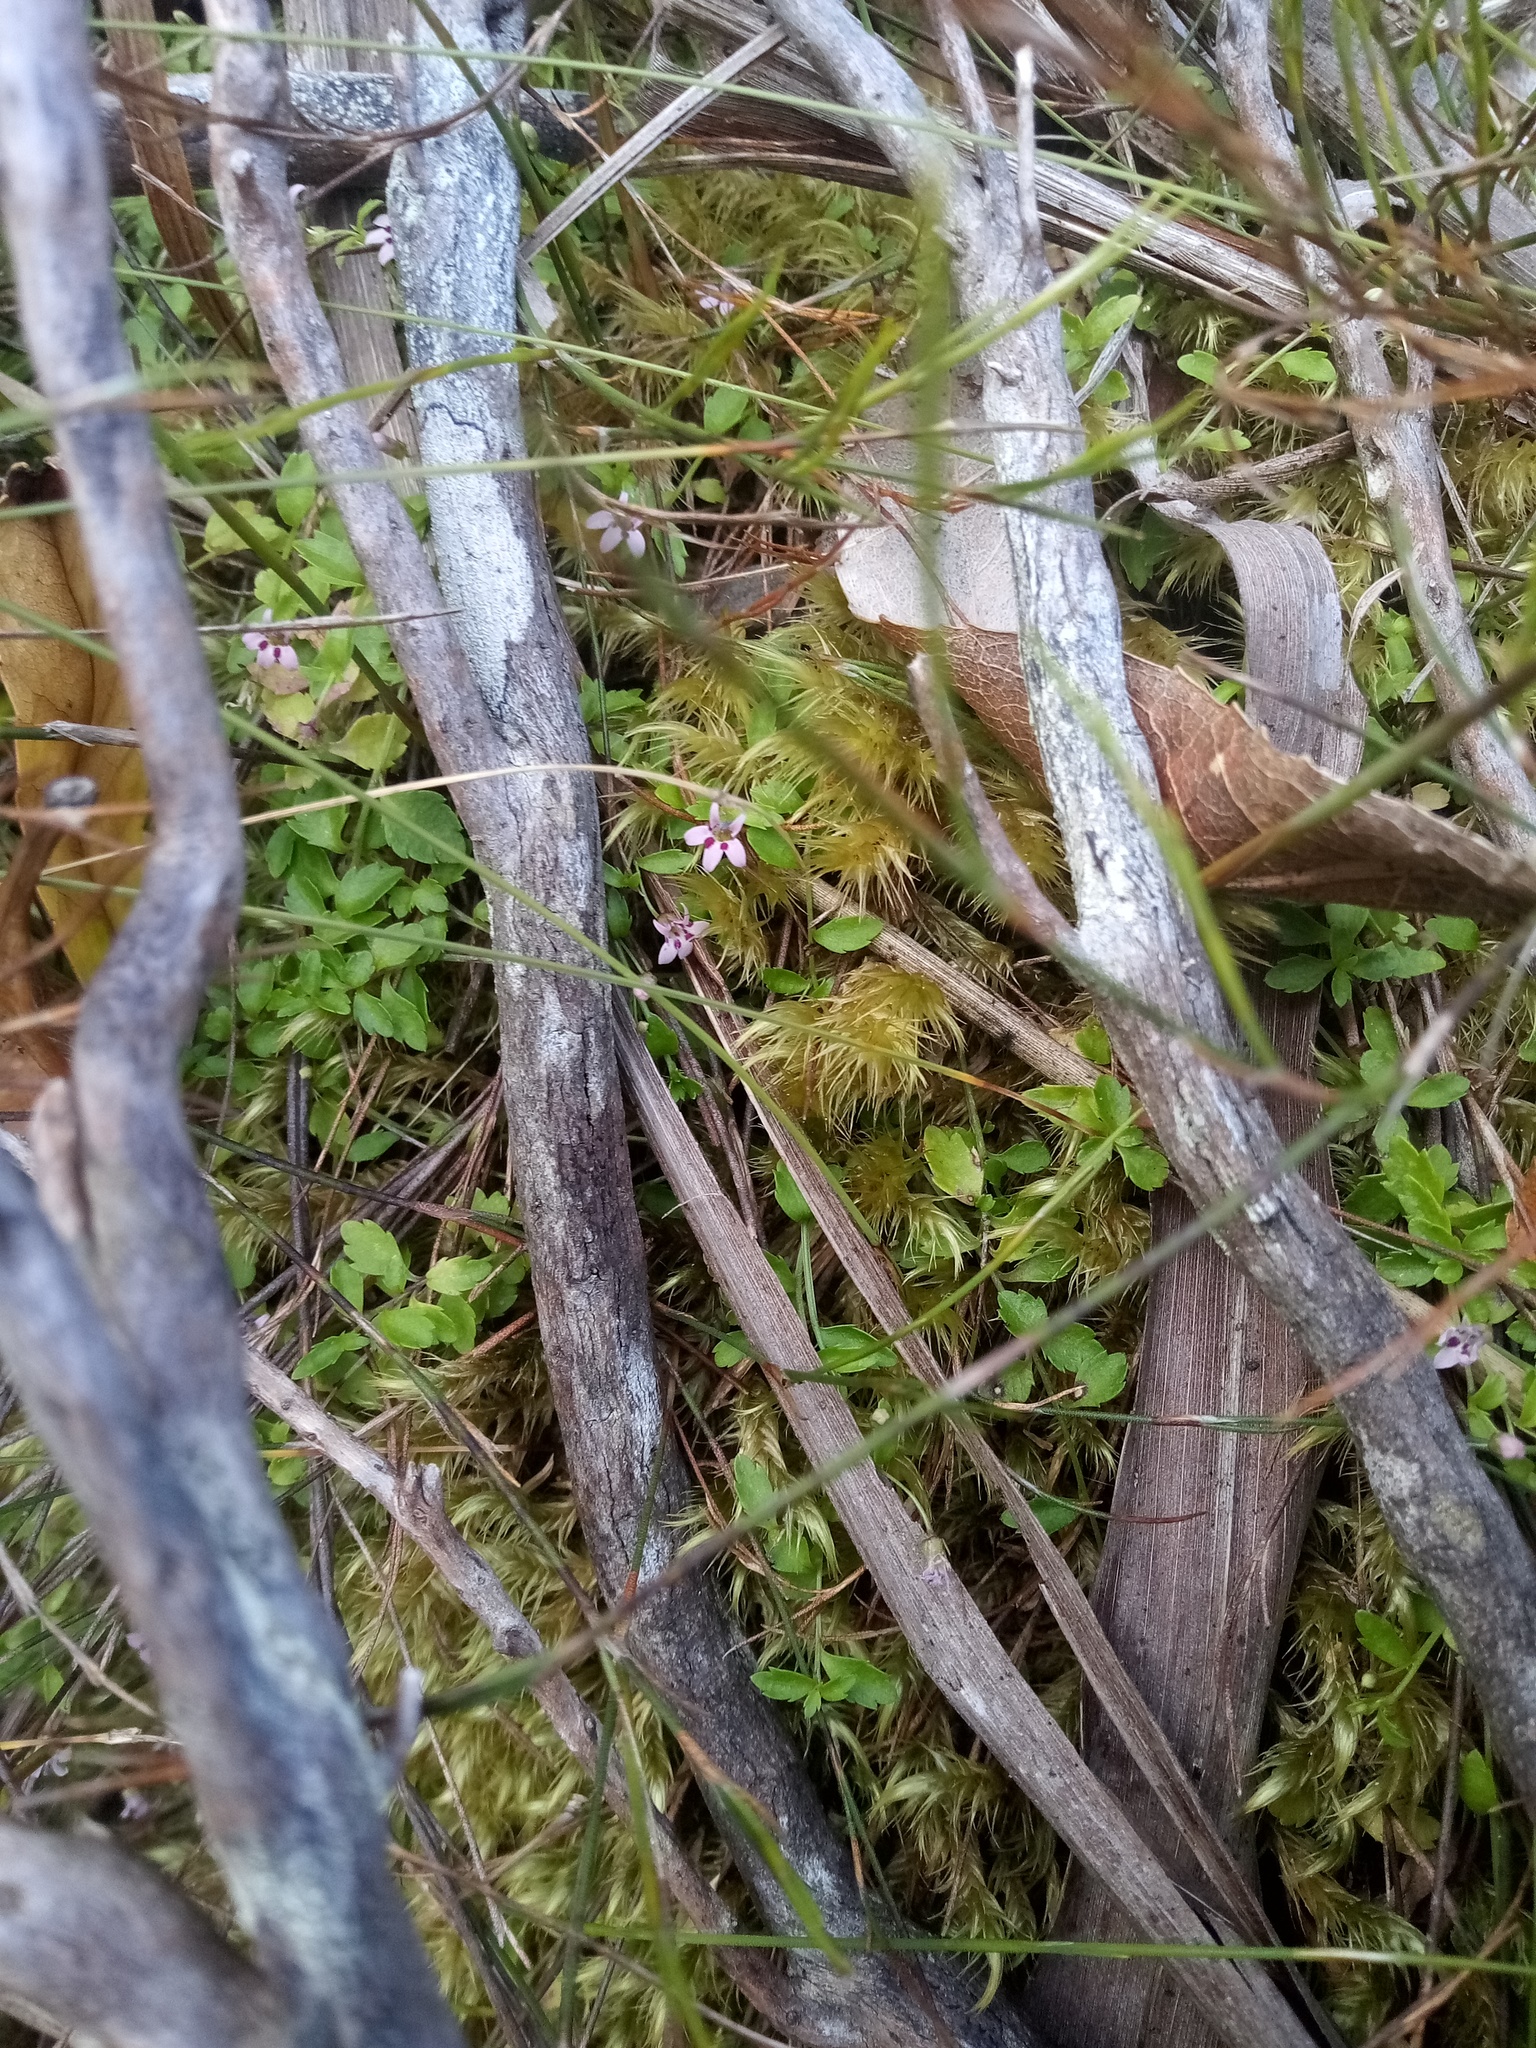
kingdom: Plantae
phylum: Tracheophyta
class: Magnoliopsida
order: Asterales
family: Campanulaceae
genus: Unigenes
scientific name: Unigenes humifusa
